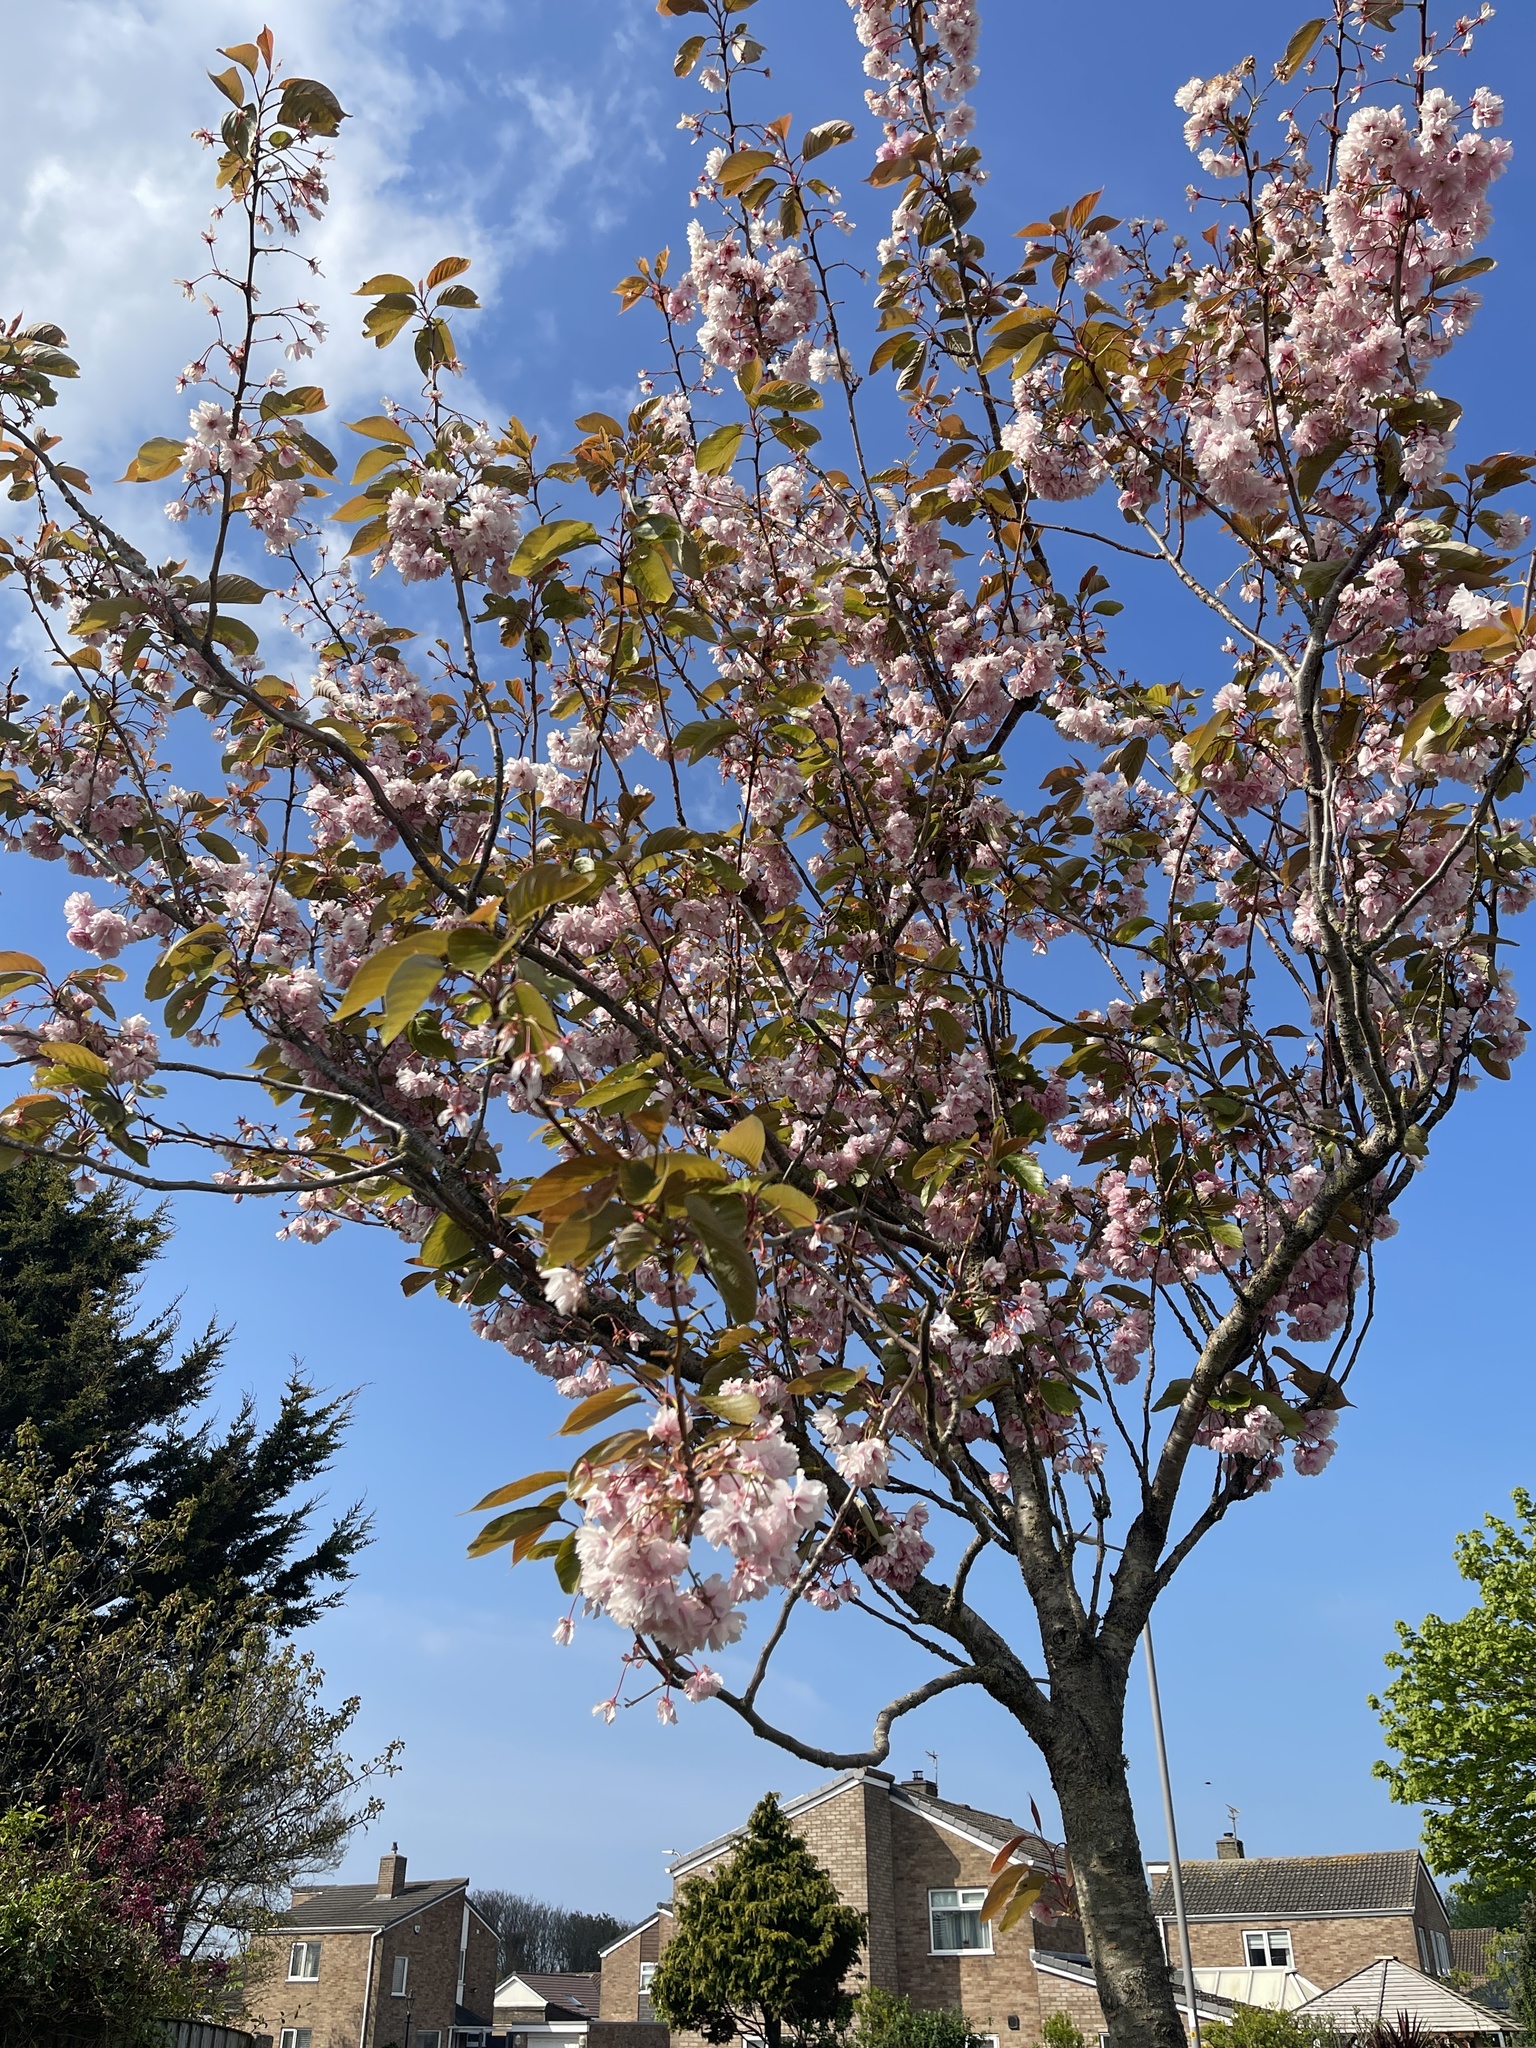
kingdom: Plantae
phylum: Tracheophyta
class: Magnoliopsida
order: Rosales
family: Rosaceae
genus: Prunus
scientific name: Prunus serrulata
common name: Japanese cherry
